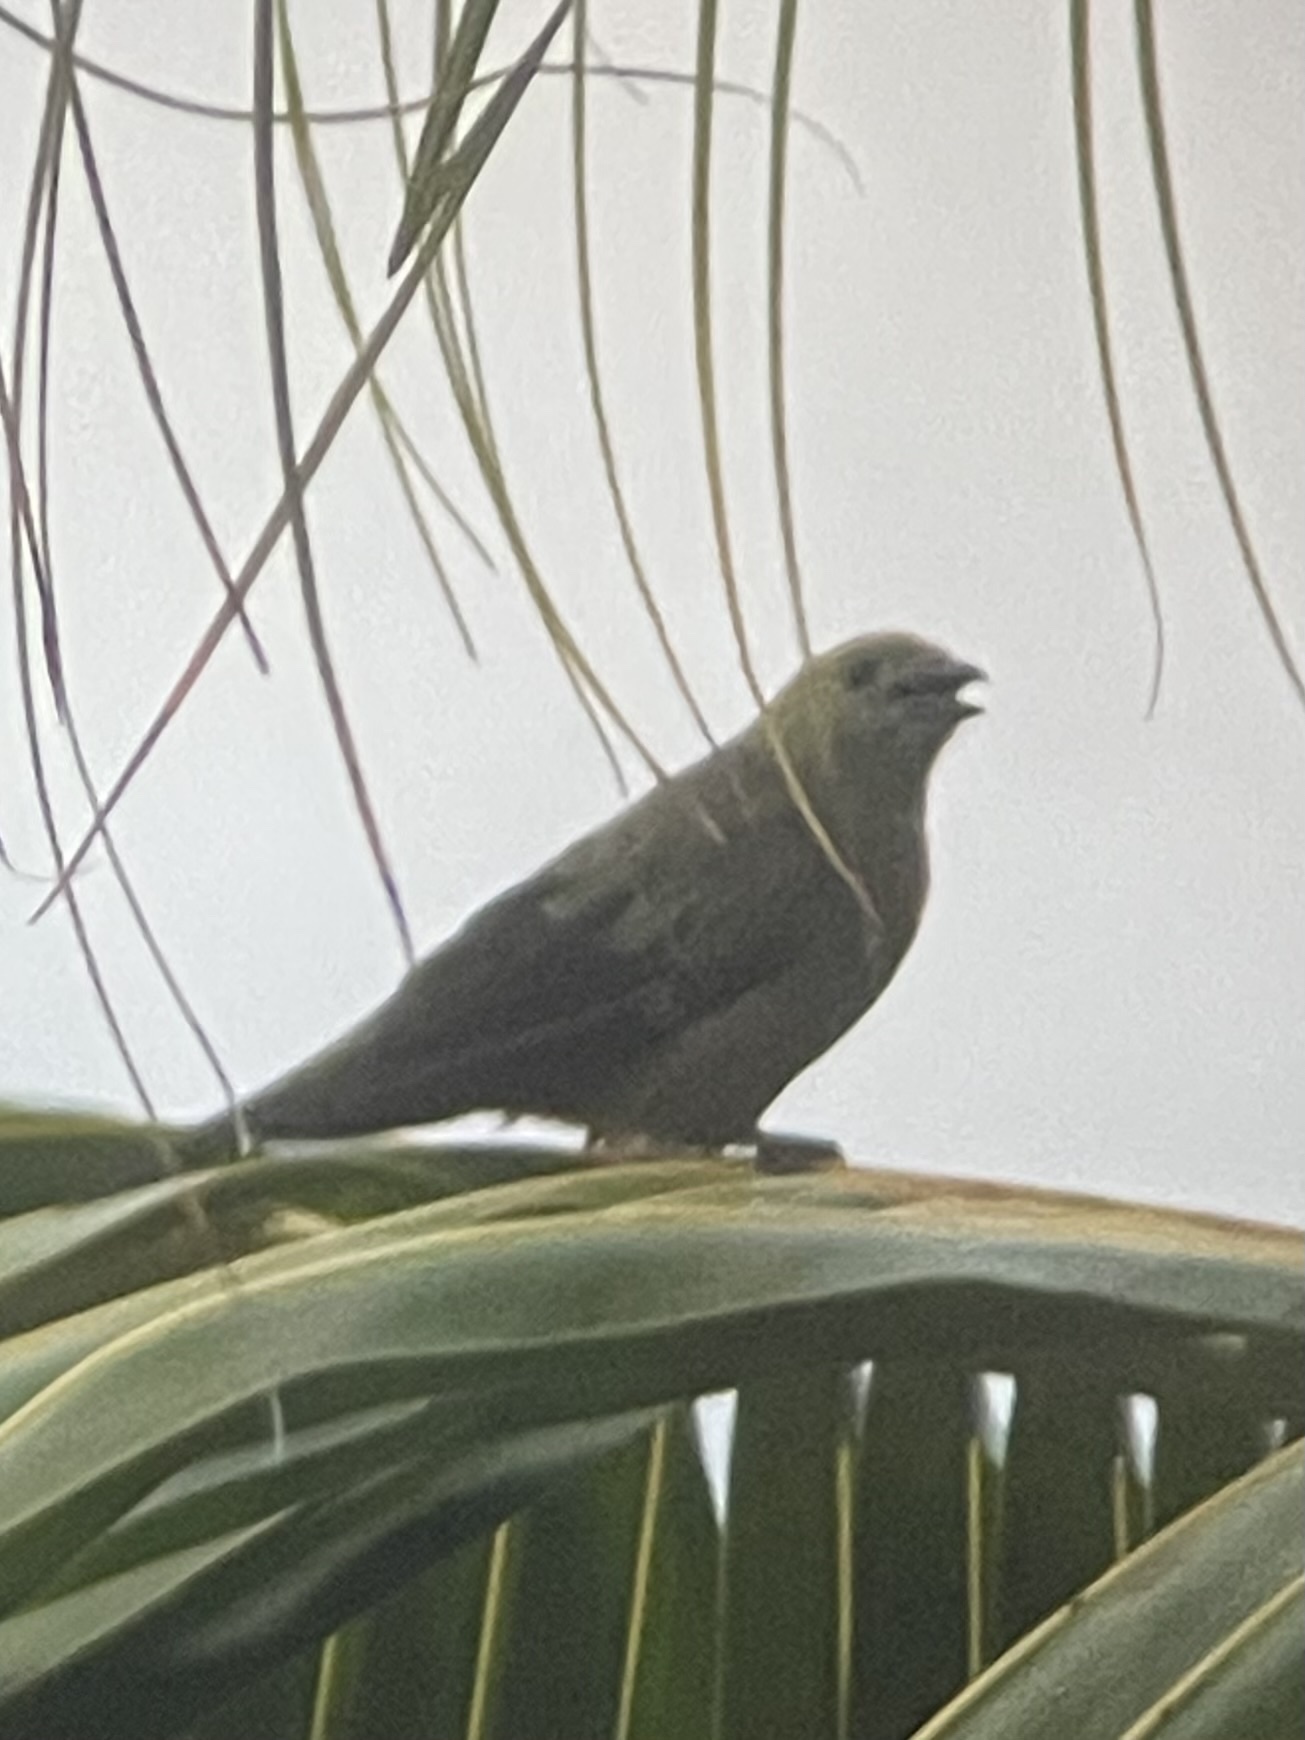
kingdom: Animalia
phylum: Chordata
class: Aves
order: Passeriformes
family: Thraupidae
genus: Thraupis
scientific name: Thraupis palmarum
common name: Palm tanager
